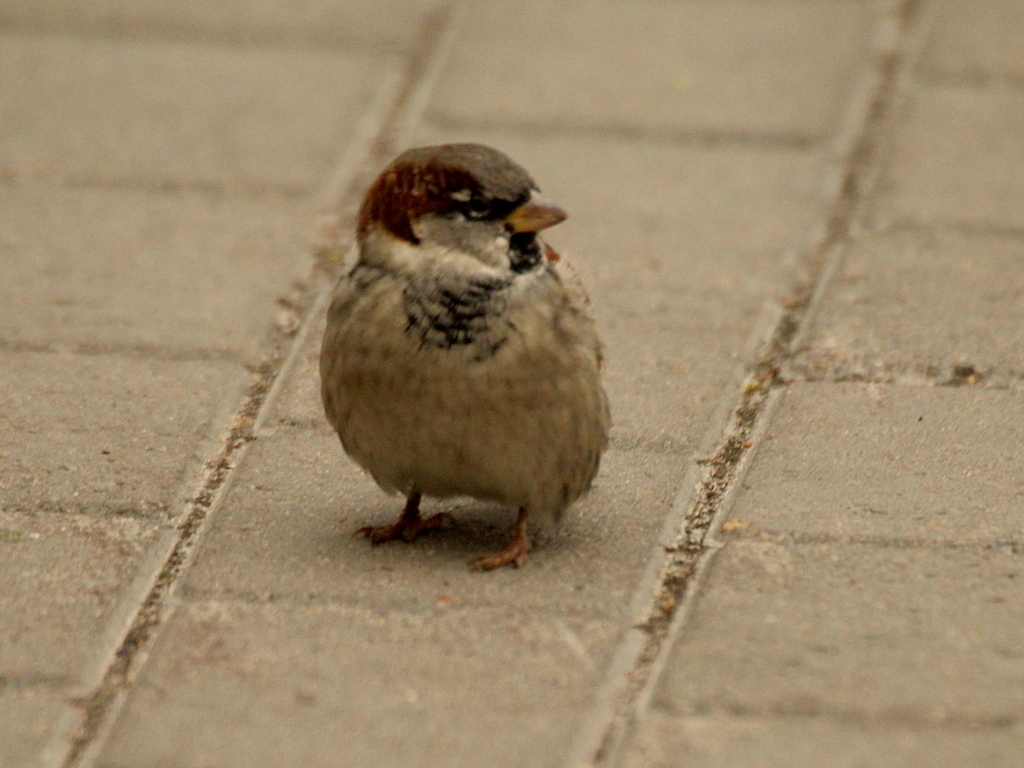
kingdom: Animalia
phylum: Chordata
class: Aves
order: Passeriformes
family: Passeridae
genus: Passer
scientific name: Passer domesticus
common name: House sparrow
